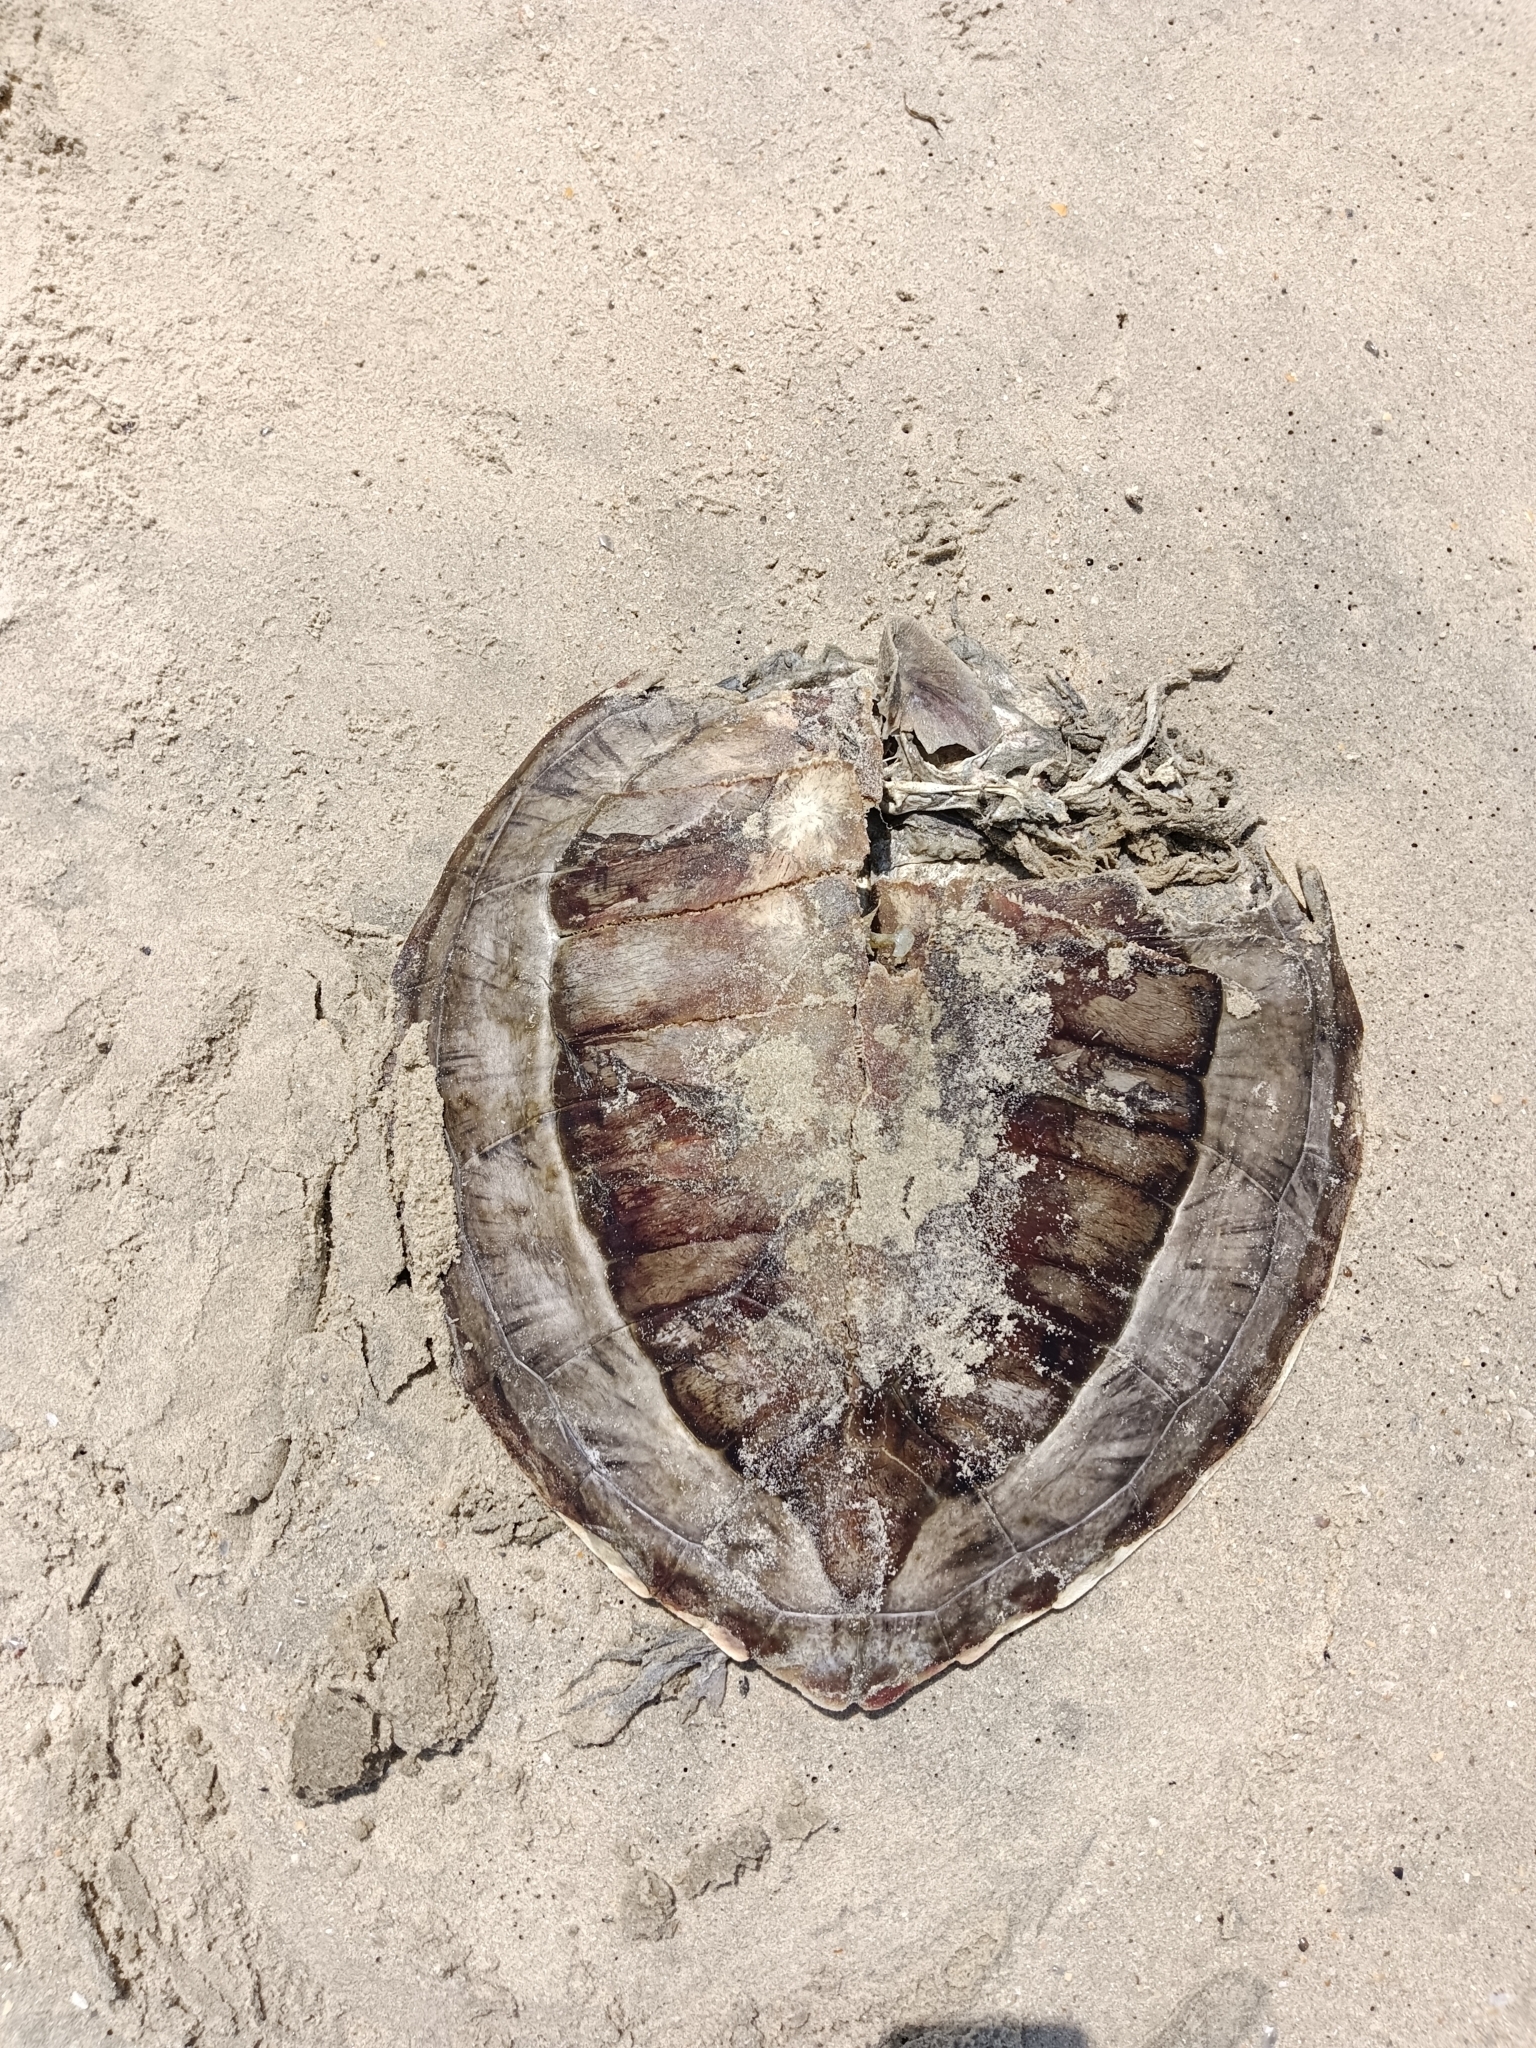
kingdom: Animalia
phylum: Chordata
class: Testudines
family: Cheloniidae
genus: Eretmochelys
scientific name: Eretmochelys imbricata
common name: Hawksbill turtle
